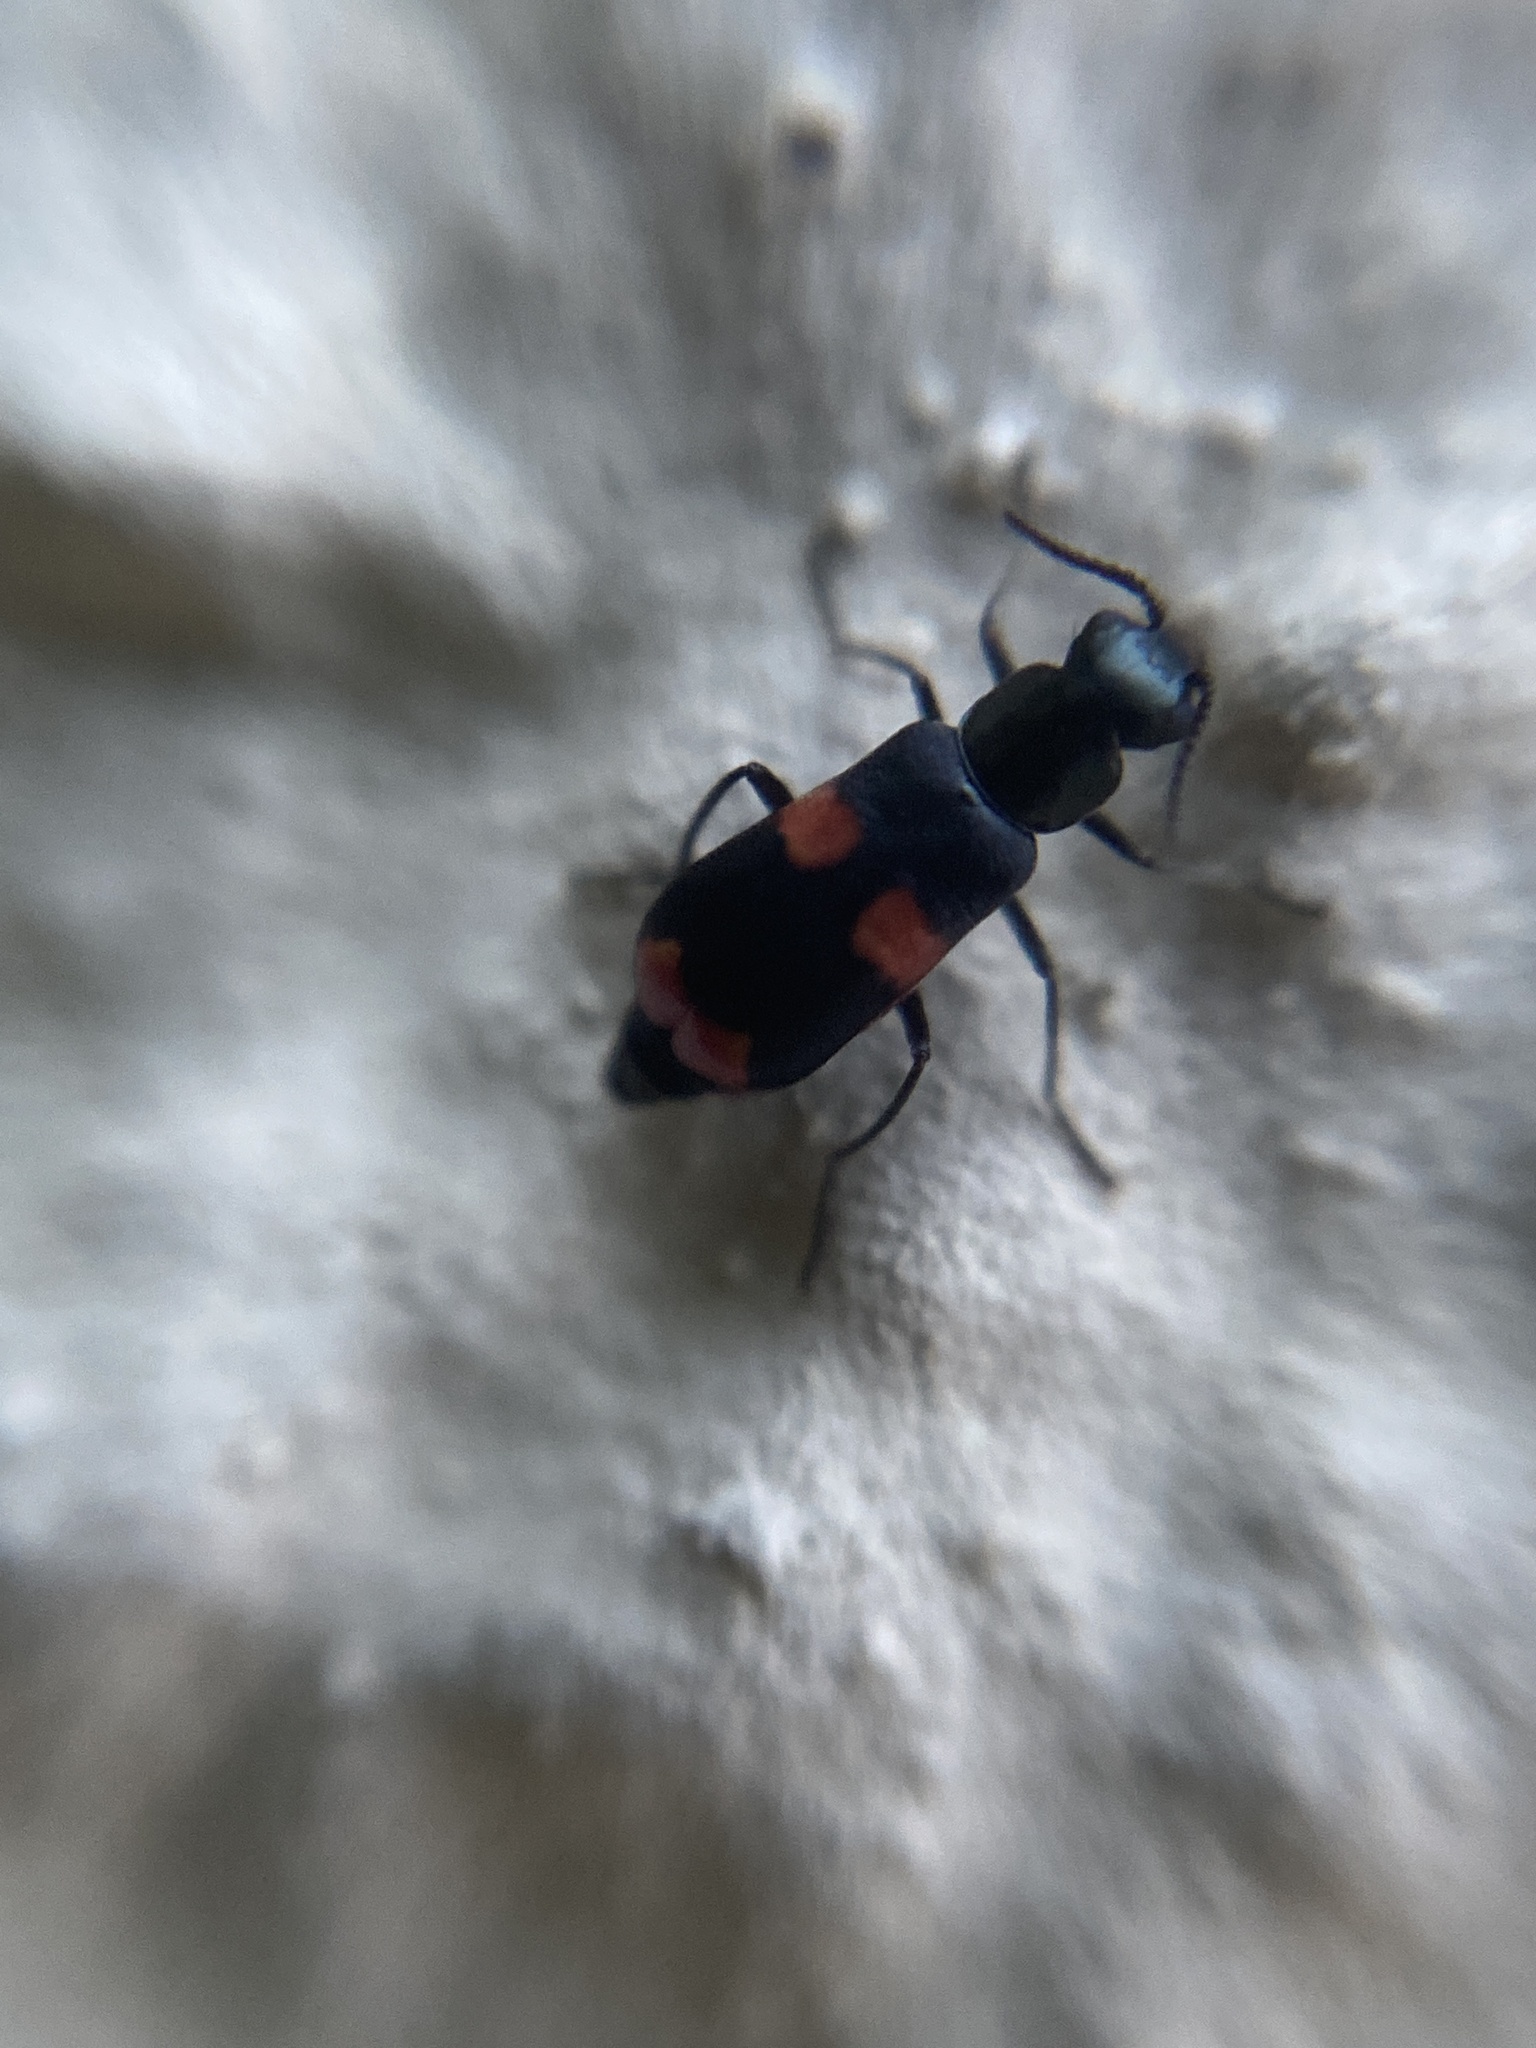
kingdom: Animalia
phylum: Arthropoda
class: Insecta
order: Coleoptera
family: Melyridae
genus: Anthocomus
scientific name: Anthocomus fasciatus
